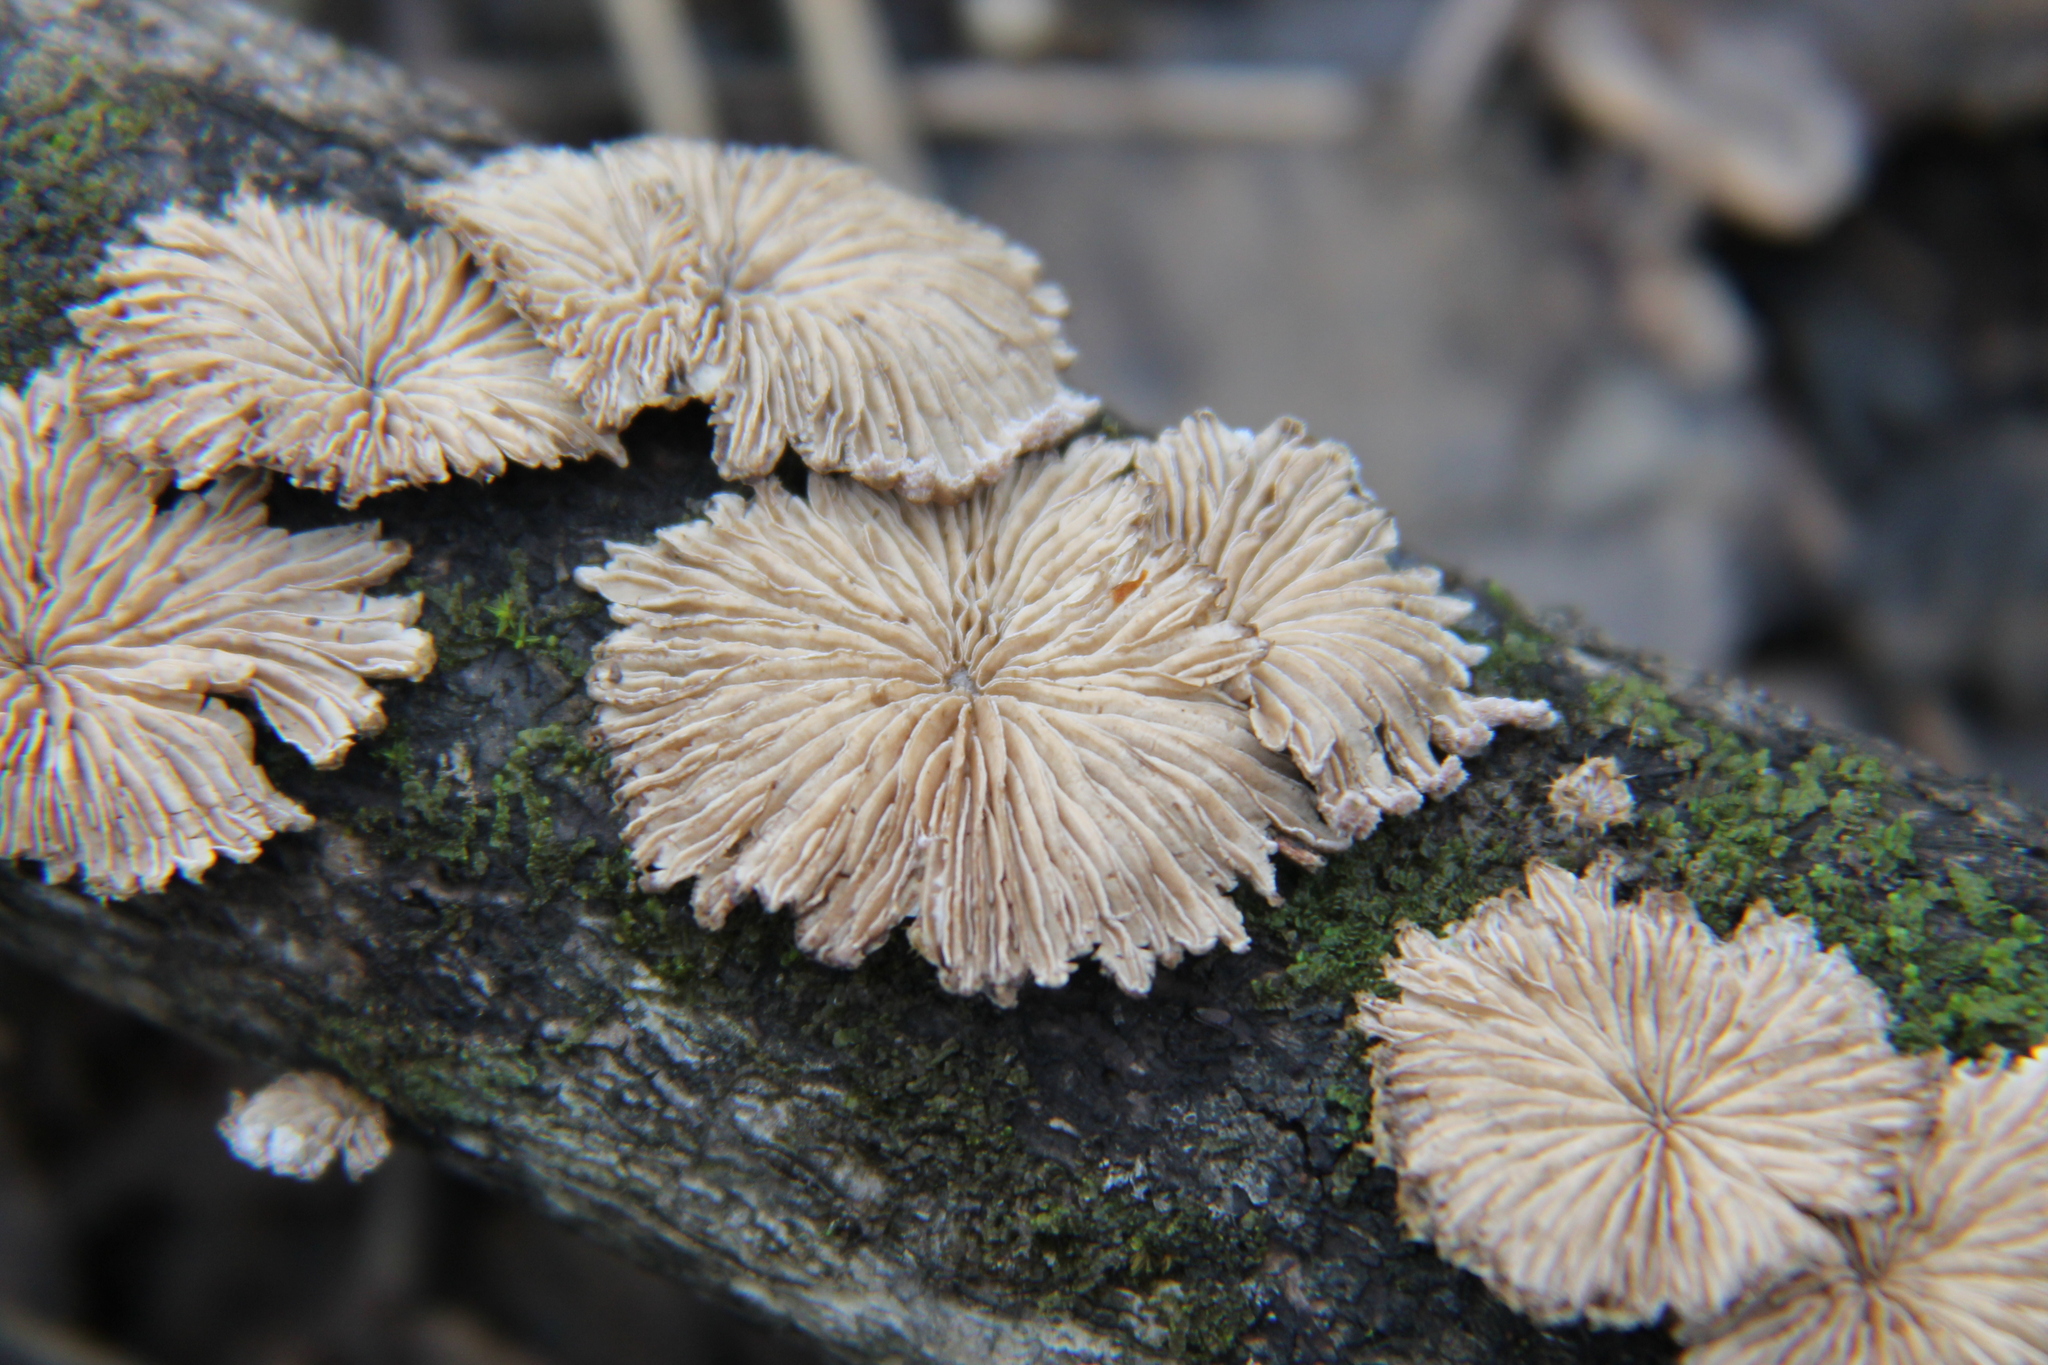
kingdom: Fungi
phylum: Basidiomycota
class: Agaricomycetes
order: Agaricales
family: Schizophyllaceae
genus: Schizophyllum
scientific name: Schizophyllum commune
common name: Common porecrust
